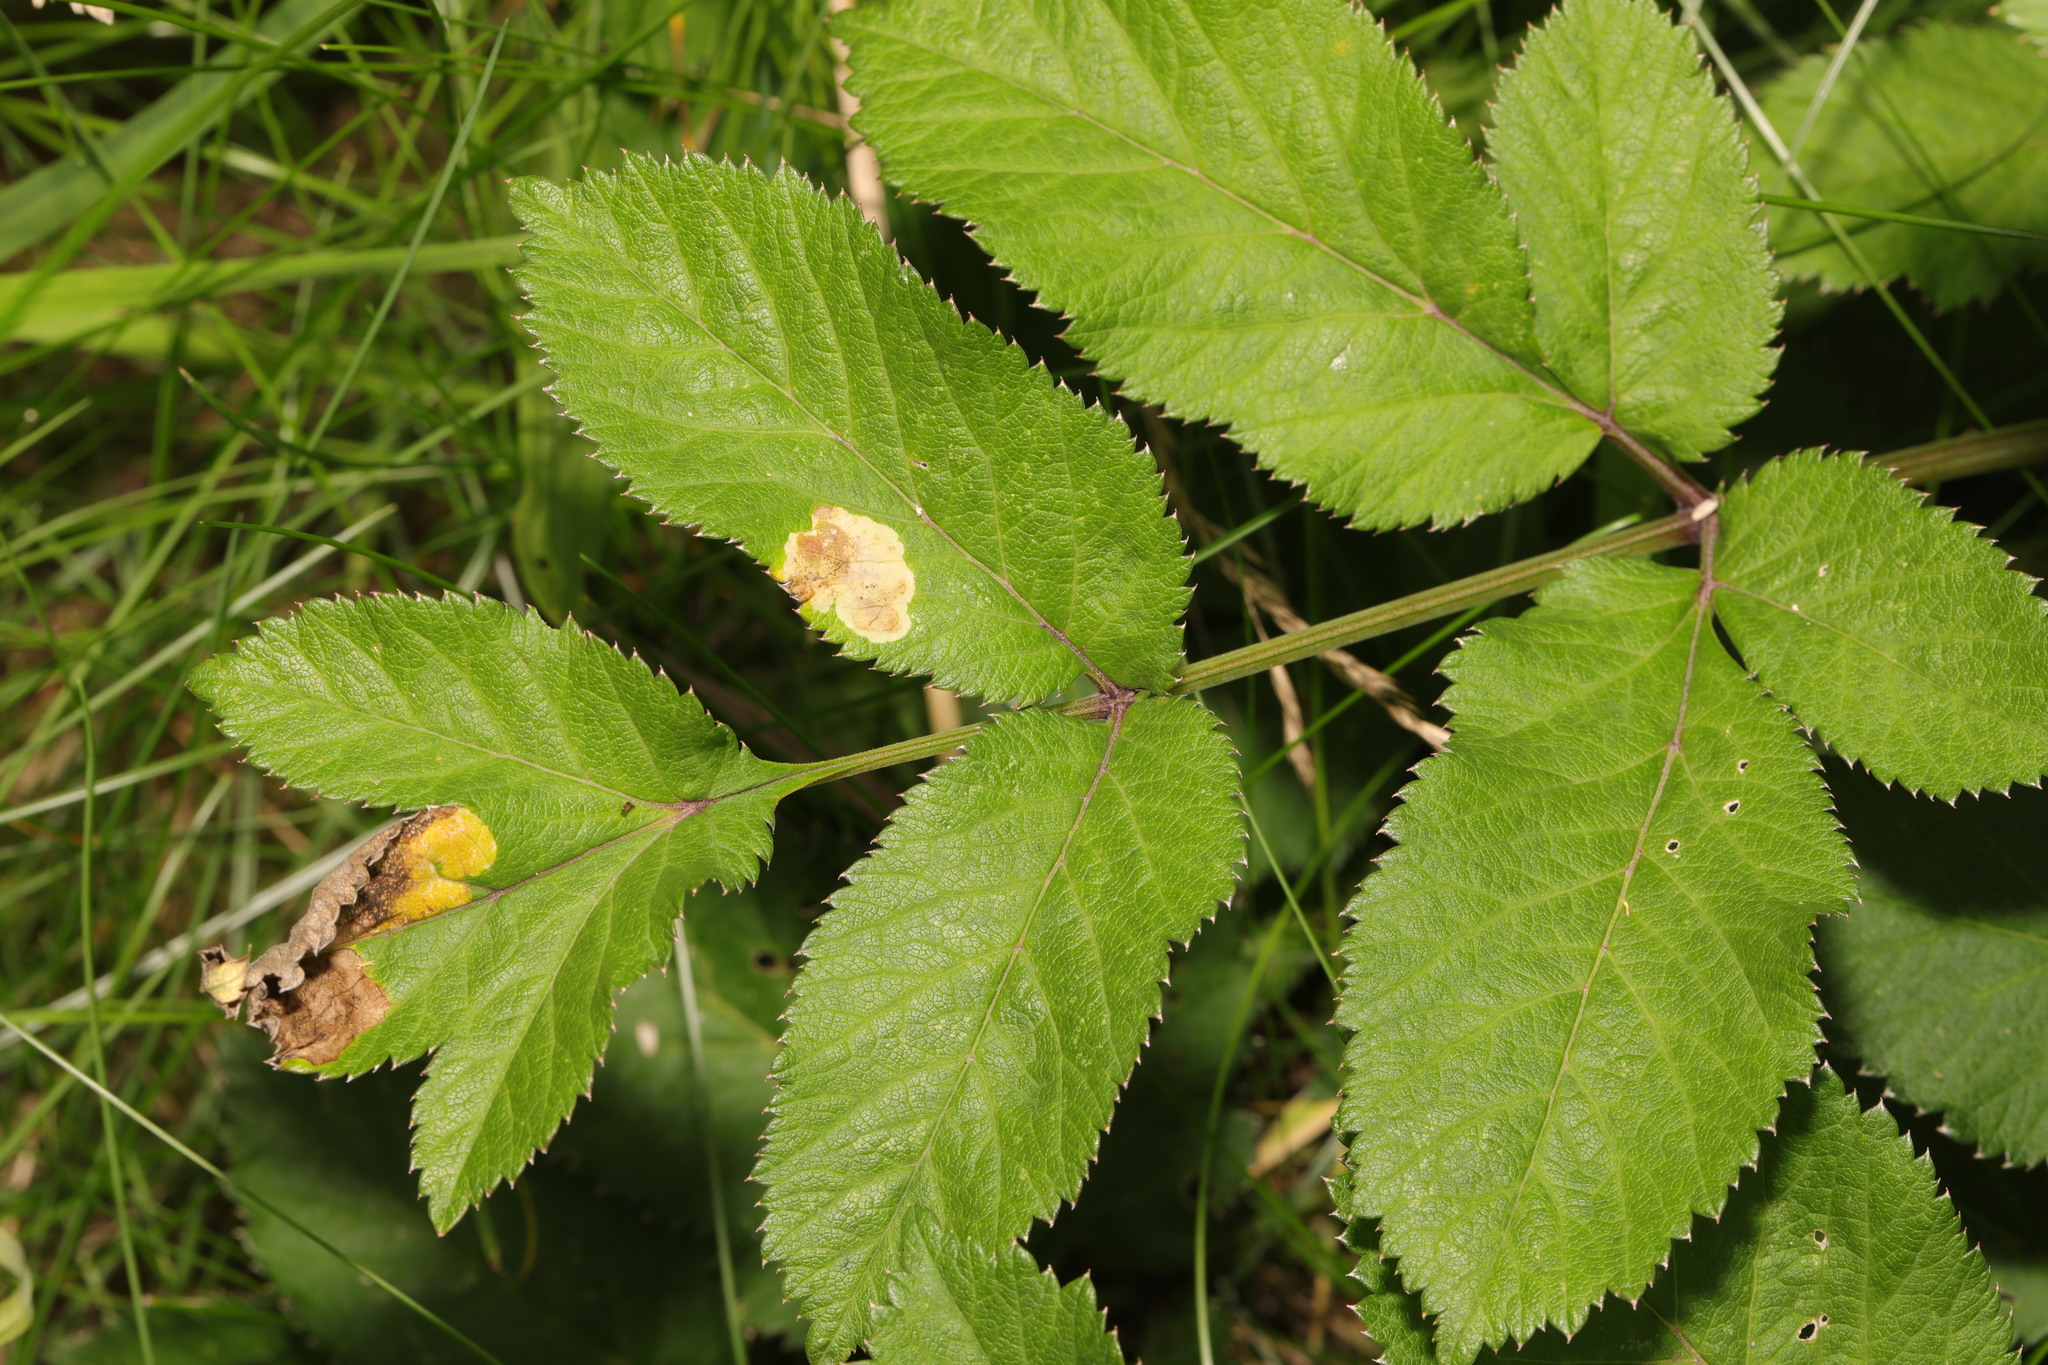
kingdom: Plantae
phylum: Tracheophyta
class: Magnoliopsida
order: Apiales
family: Apiaceae
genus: Angelica
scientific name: Angelica sylvestris
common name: Wild angelica
